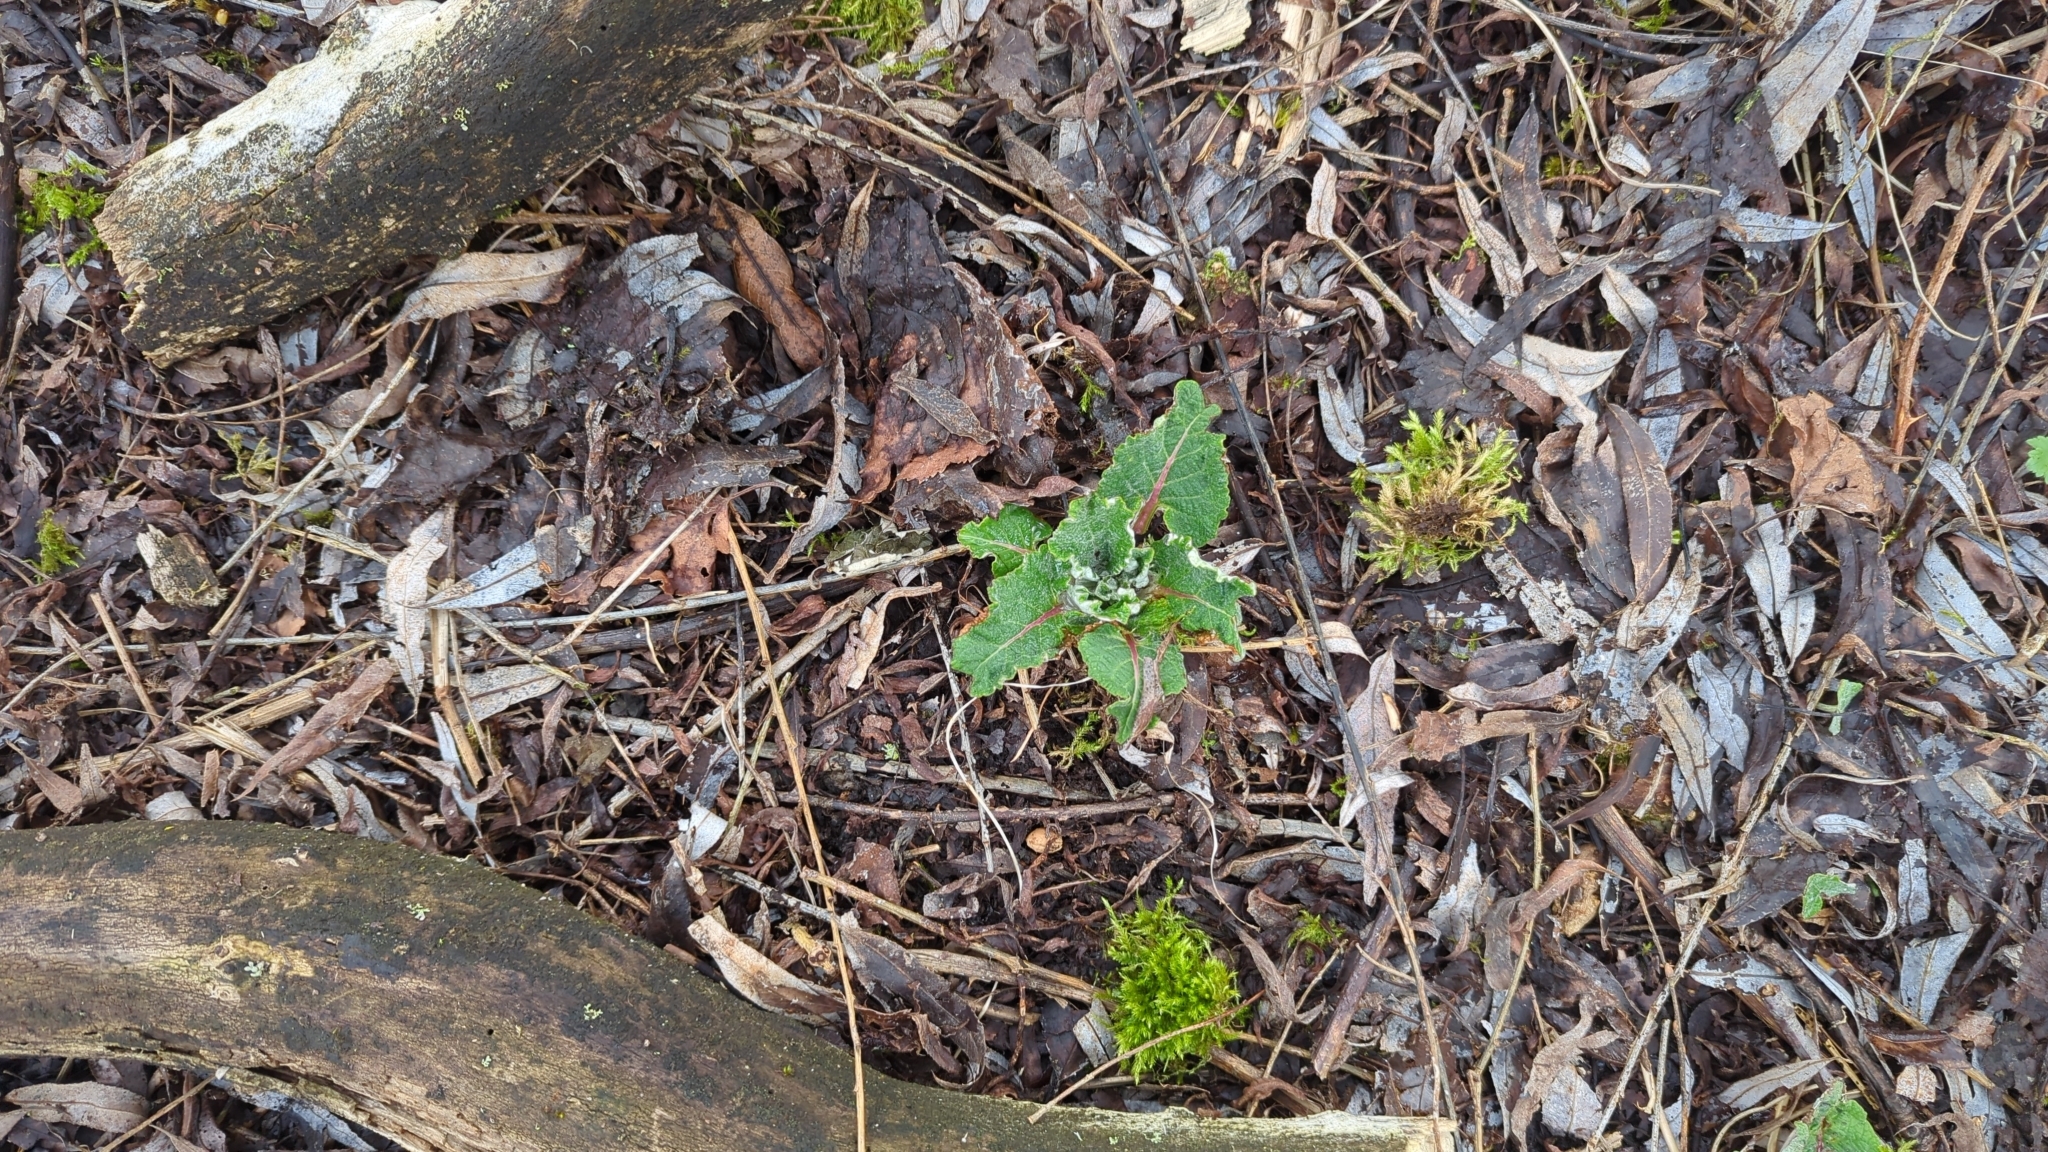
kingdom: Plantae
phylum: Tracheophyta
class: Magnoliopsida
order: Caryophyllales
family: Polygonaceae
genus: Rumex
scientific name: Rumex obtusifolius
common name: Bitter dock
